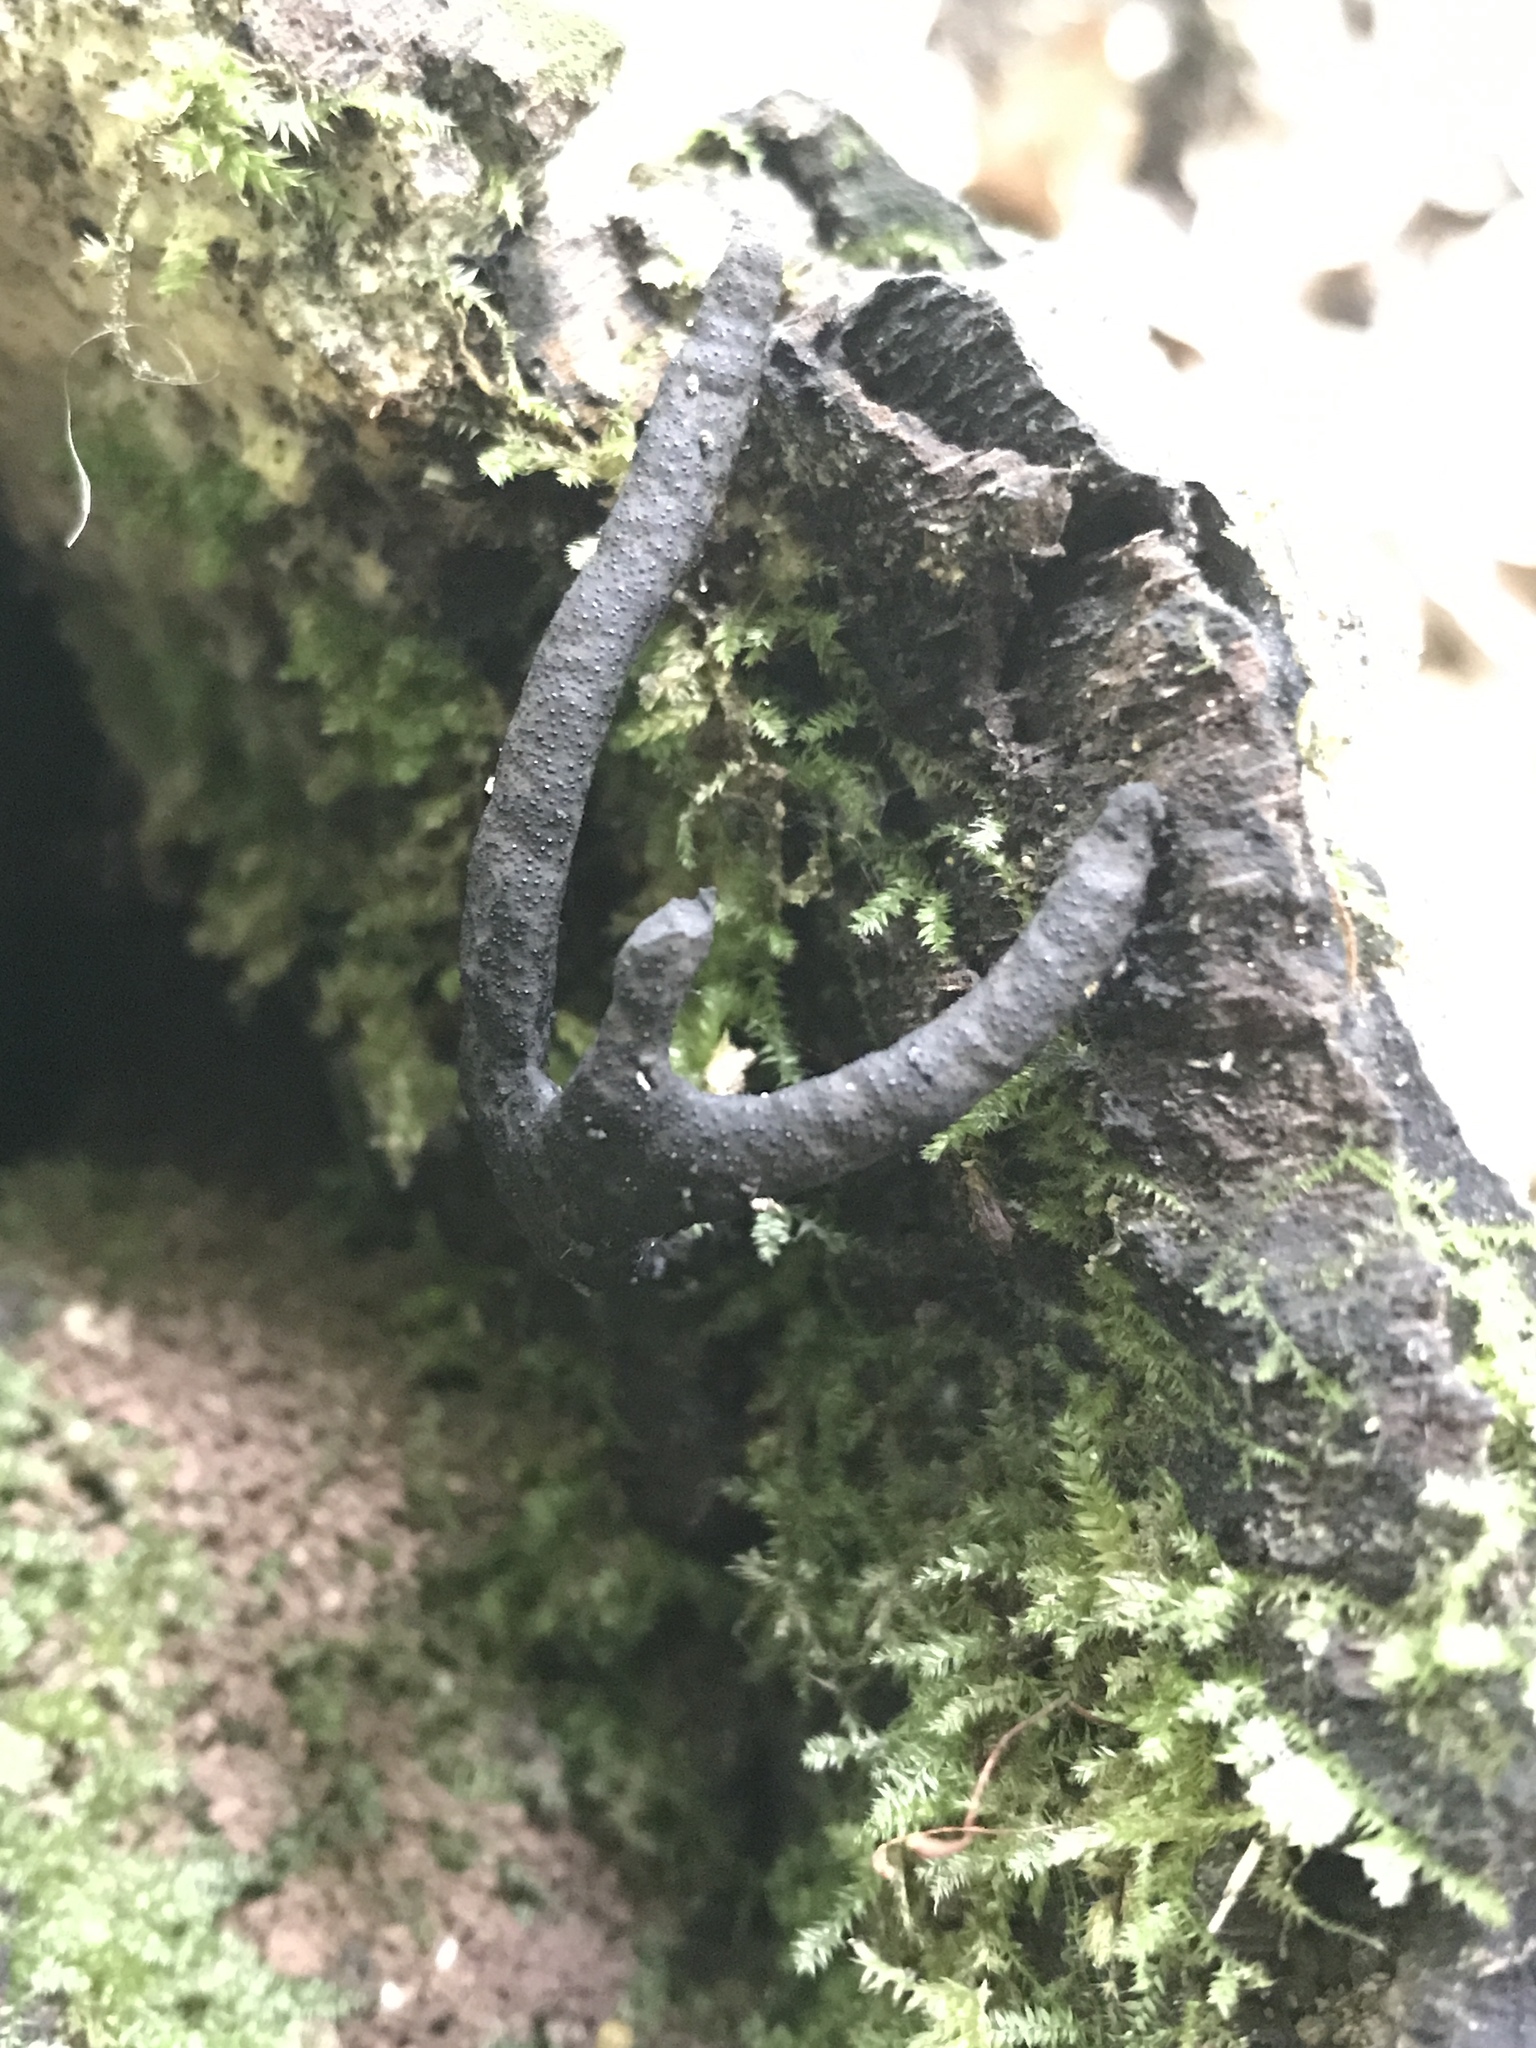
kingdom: Fungi
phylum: Ascomycota
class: Sordariomycetes
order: Xylariales
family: Xylariaceae
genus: Xylaria
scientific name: Xylaria corniformis
